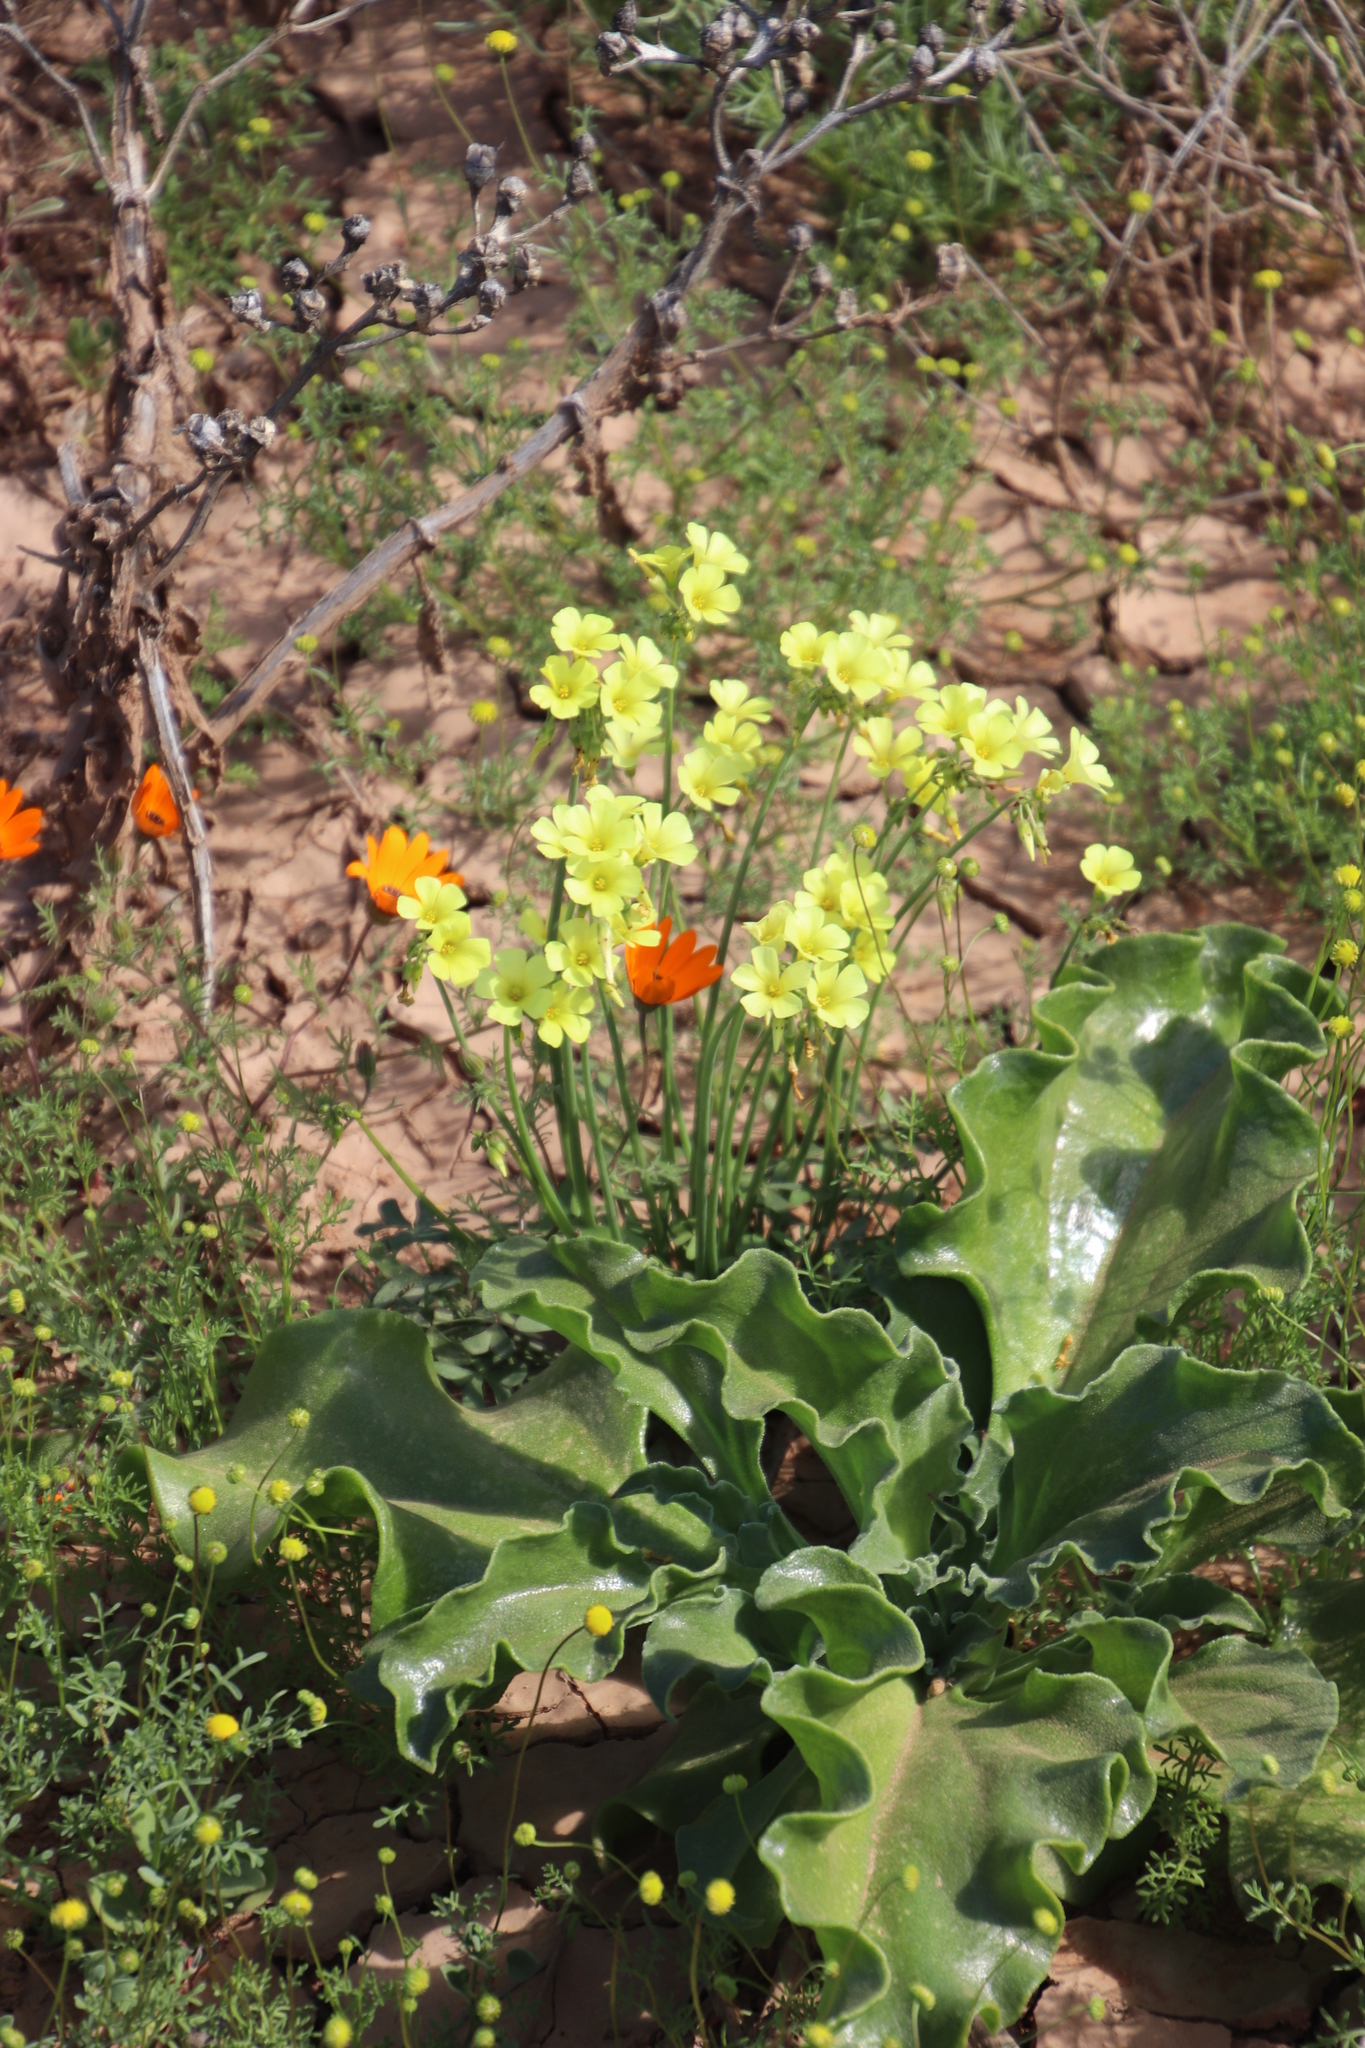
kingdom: Plantae
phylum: Tracheophyta
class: Magnoliopsida
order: Oxalidales
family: Oxalidaceae
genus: Oxalis
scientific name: Oxalis pes-caprae
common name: Bermuda-buttercup
